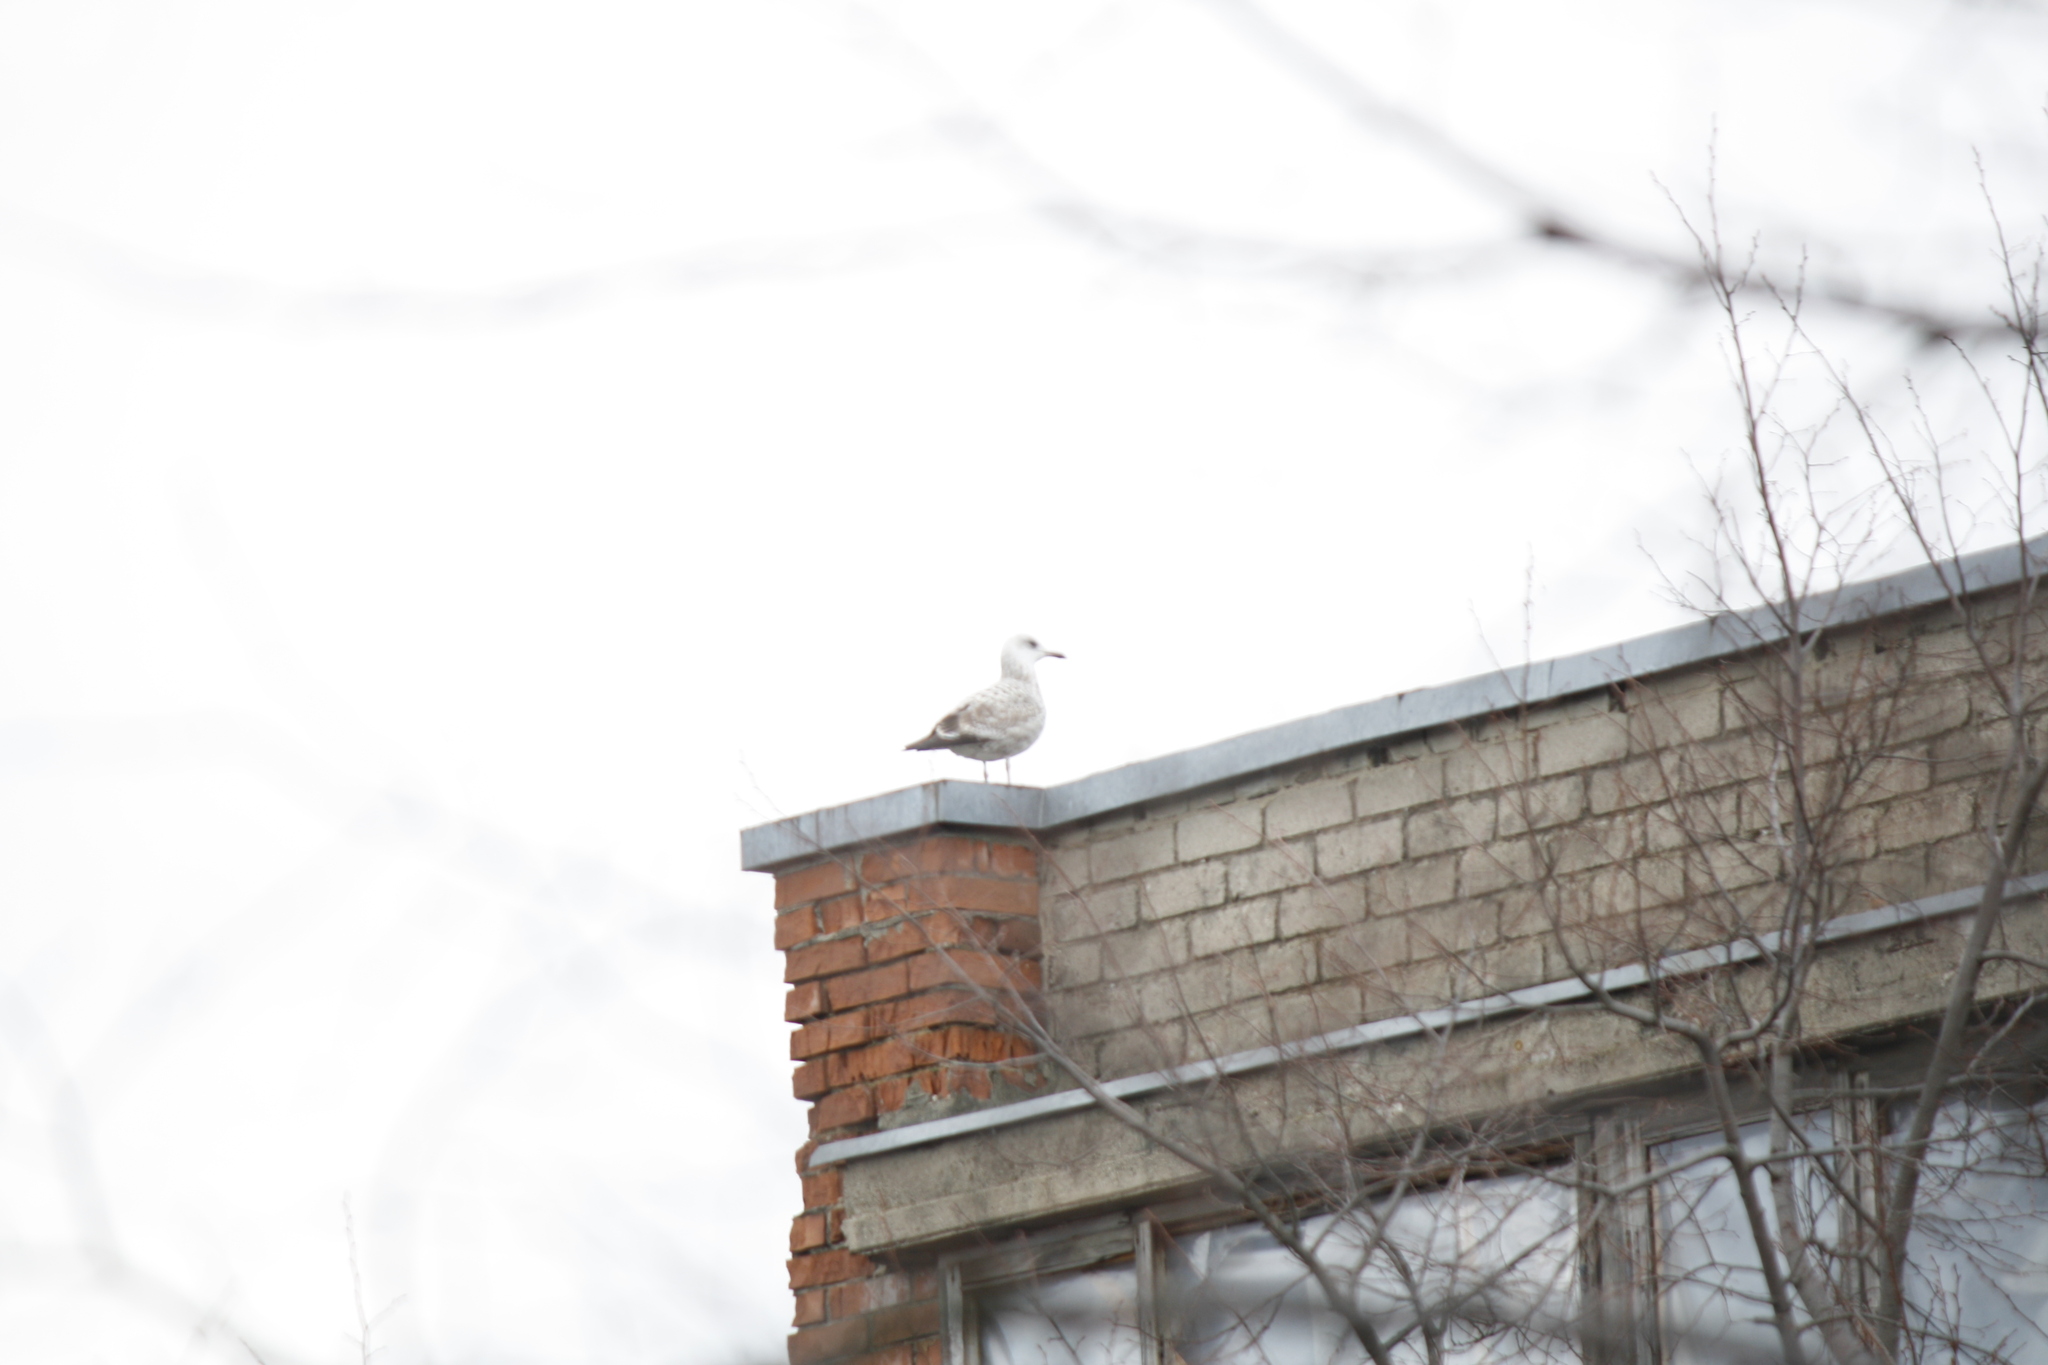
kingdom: Animalia
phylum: Chordata
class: Aves
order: Charadriiformes
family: Laridae
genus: Larus
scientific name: Larus argentatus
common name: Herring gull
